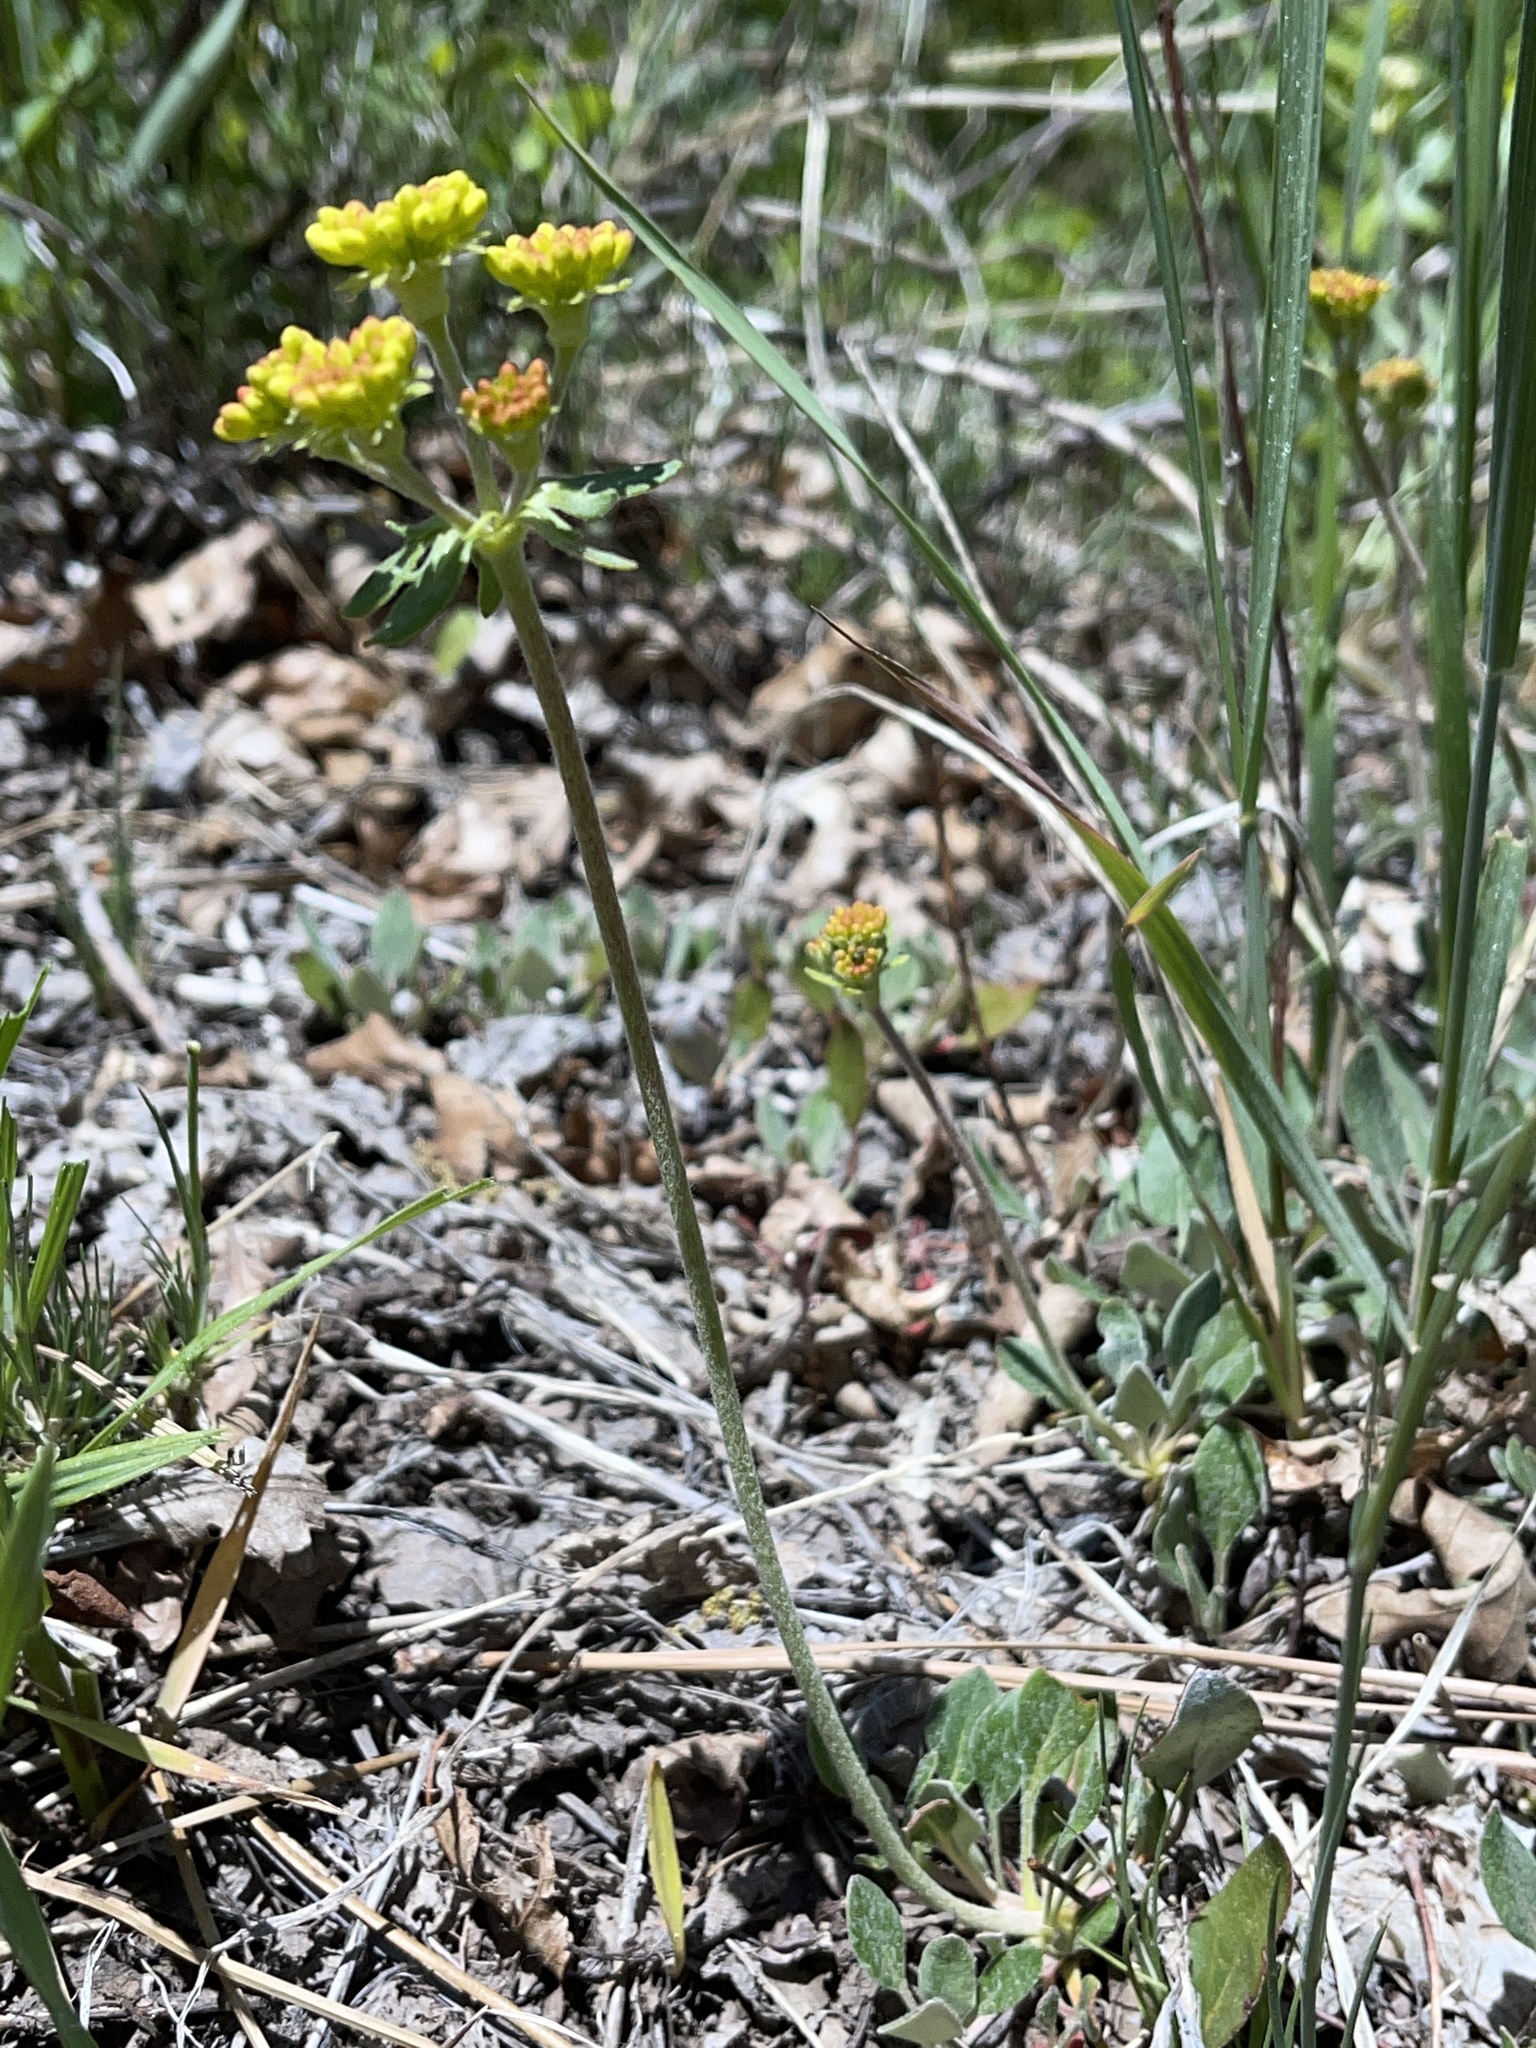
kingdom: Plantae
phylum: Tracheophyta
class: Magnoliopsida
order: Caryophyllales
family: Polygonaceae
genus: Eriogonum
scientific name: Eriogonum umbellatum
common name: Sulfur-buckwheat
